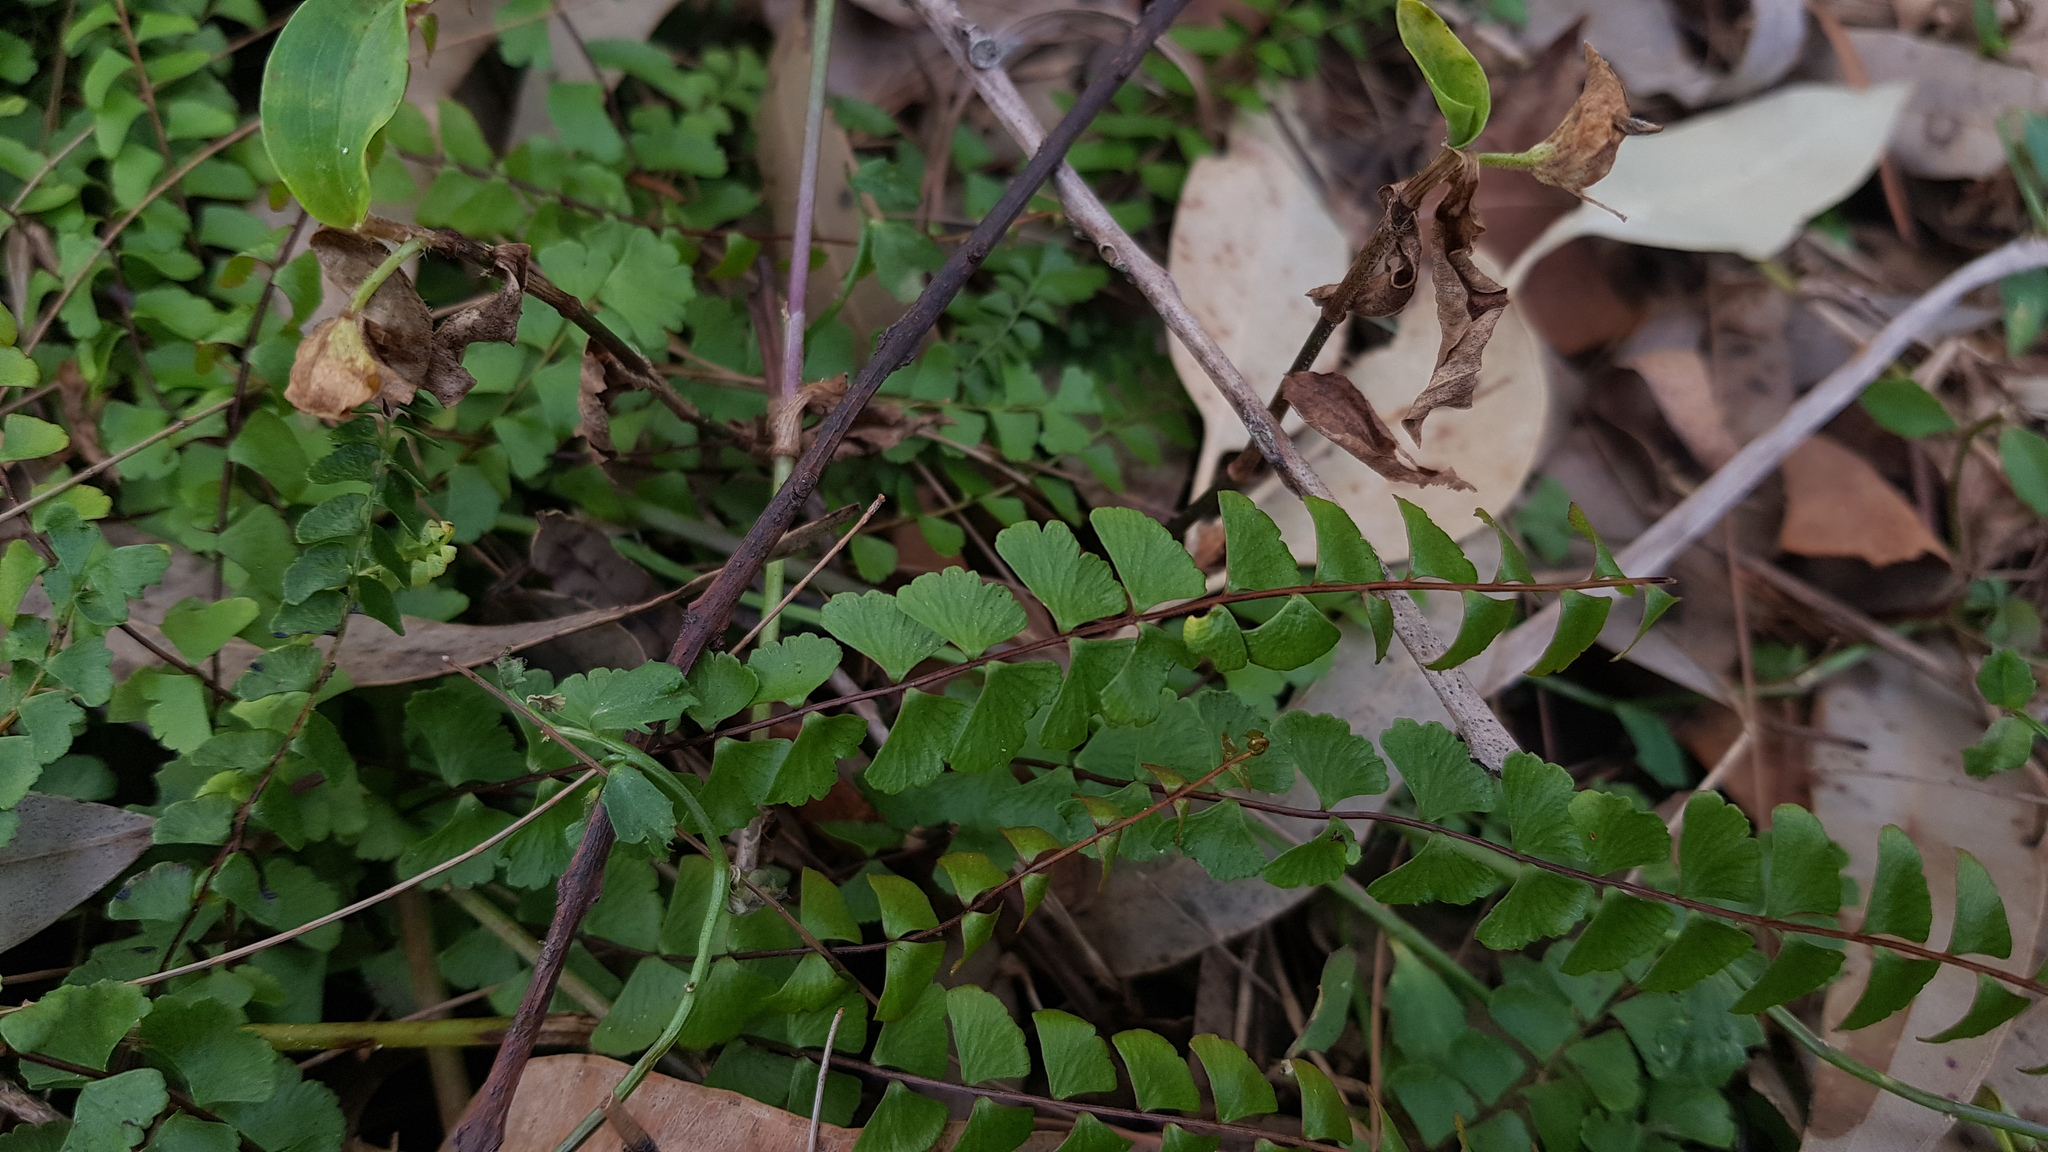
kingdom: Plantae
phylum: Tracheophyta
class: Polypodiopsida
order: Polypodiales
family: Lindsaeaceae
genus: Lindsaea
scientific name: Lindsaea linearis
